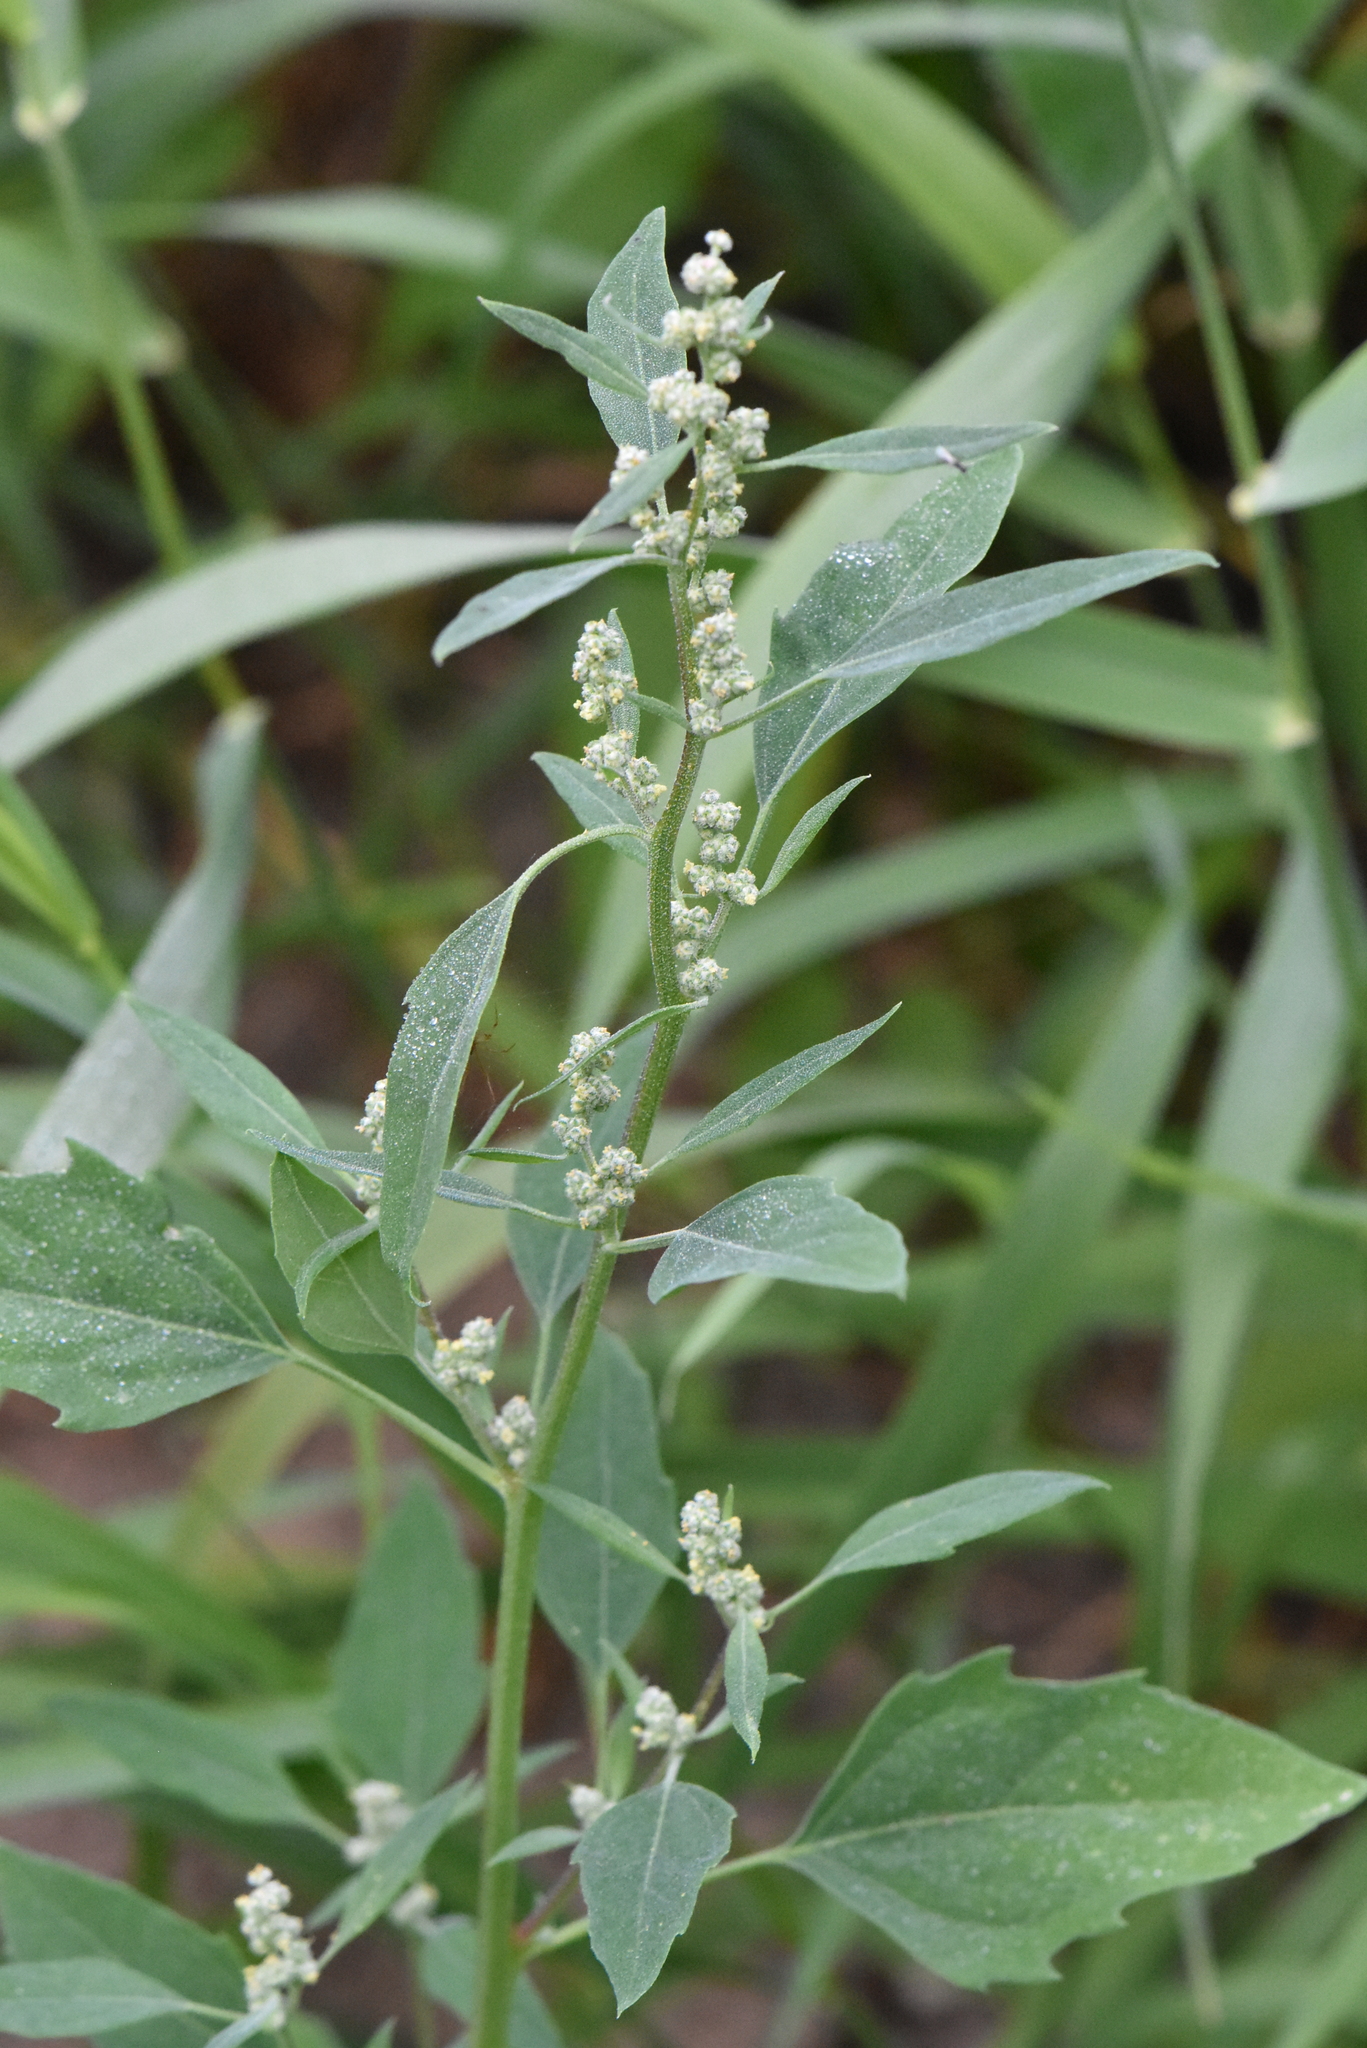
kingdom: Plantae
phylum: Tracheophyta
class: Magnoliopsida
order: Caryophyllales
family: Amaranthaceae
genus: Chenopodium
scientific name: Chenopodium album
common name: Fat-hen
